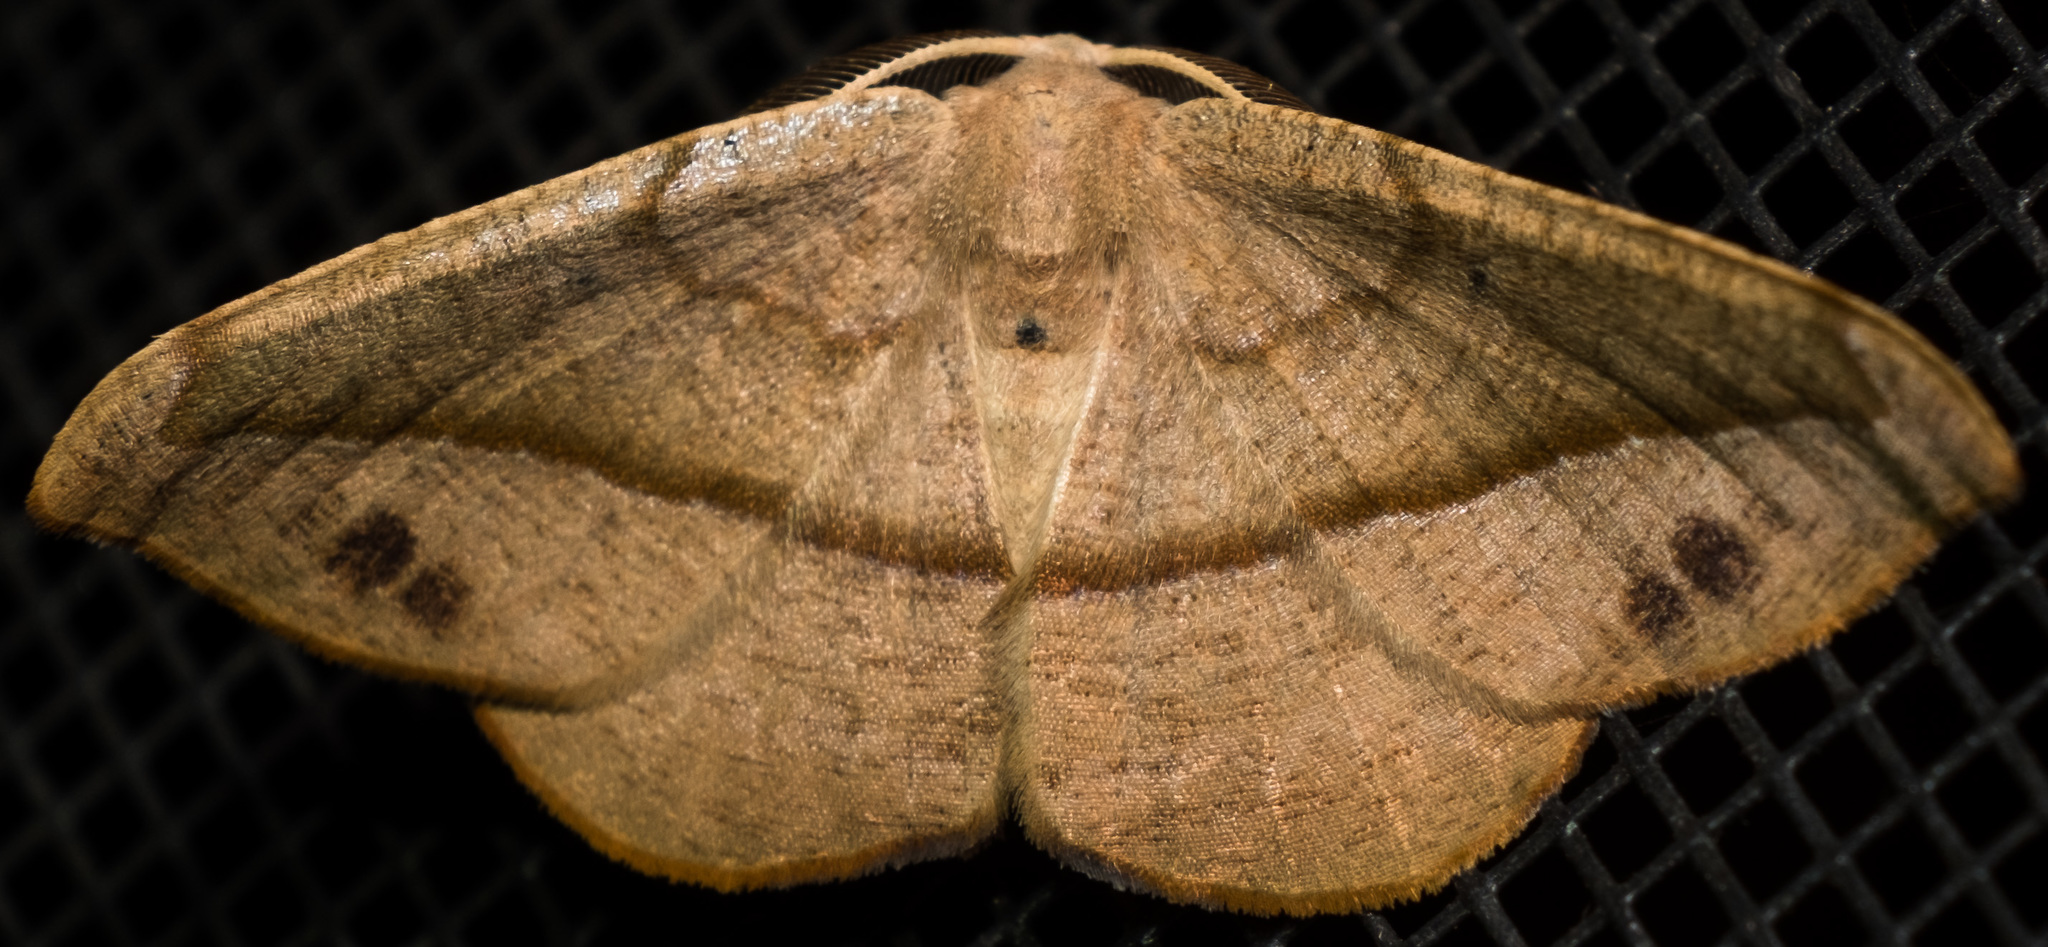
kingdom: Animalia
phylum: Arthropoda
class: Insecta
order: Lepidoptera
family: Geometridae
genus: Patalene
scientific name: Patalene olyzonaria
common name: Juniper geometer moth
